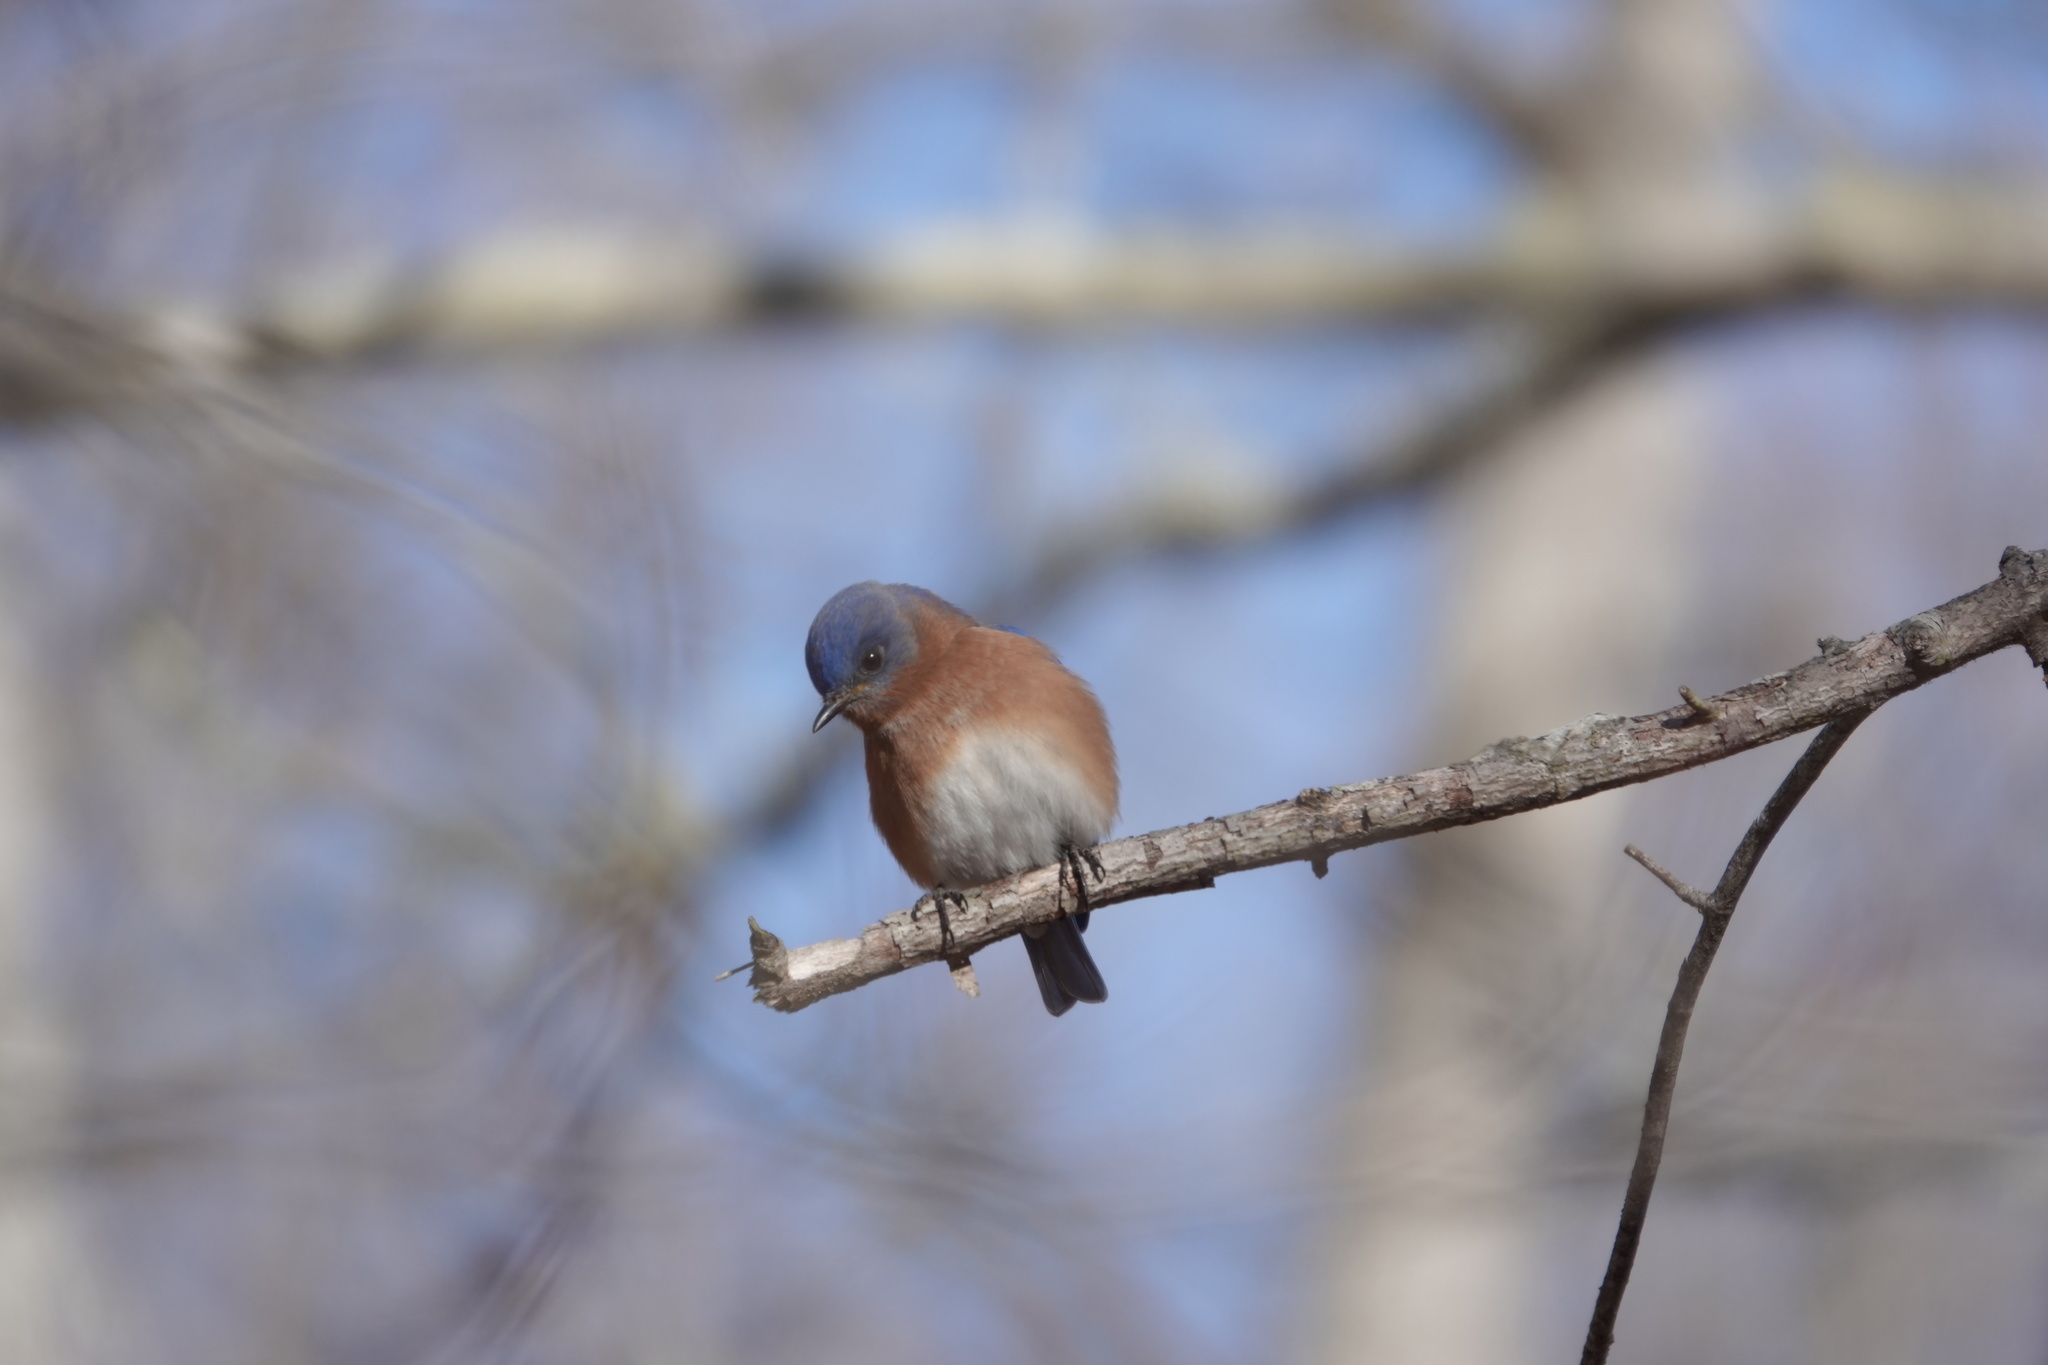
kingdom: Animalia
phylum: Chordata
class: Aves
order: Passeriformes
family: Turdidae
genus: Sialia
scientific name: Sialia sialis
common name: Eastern bluebird
